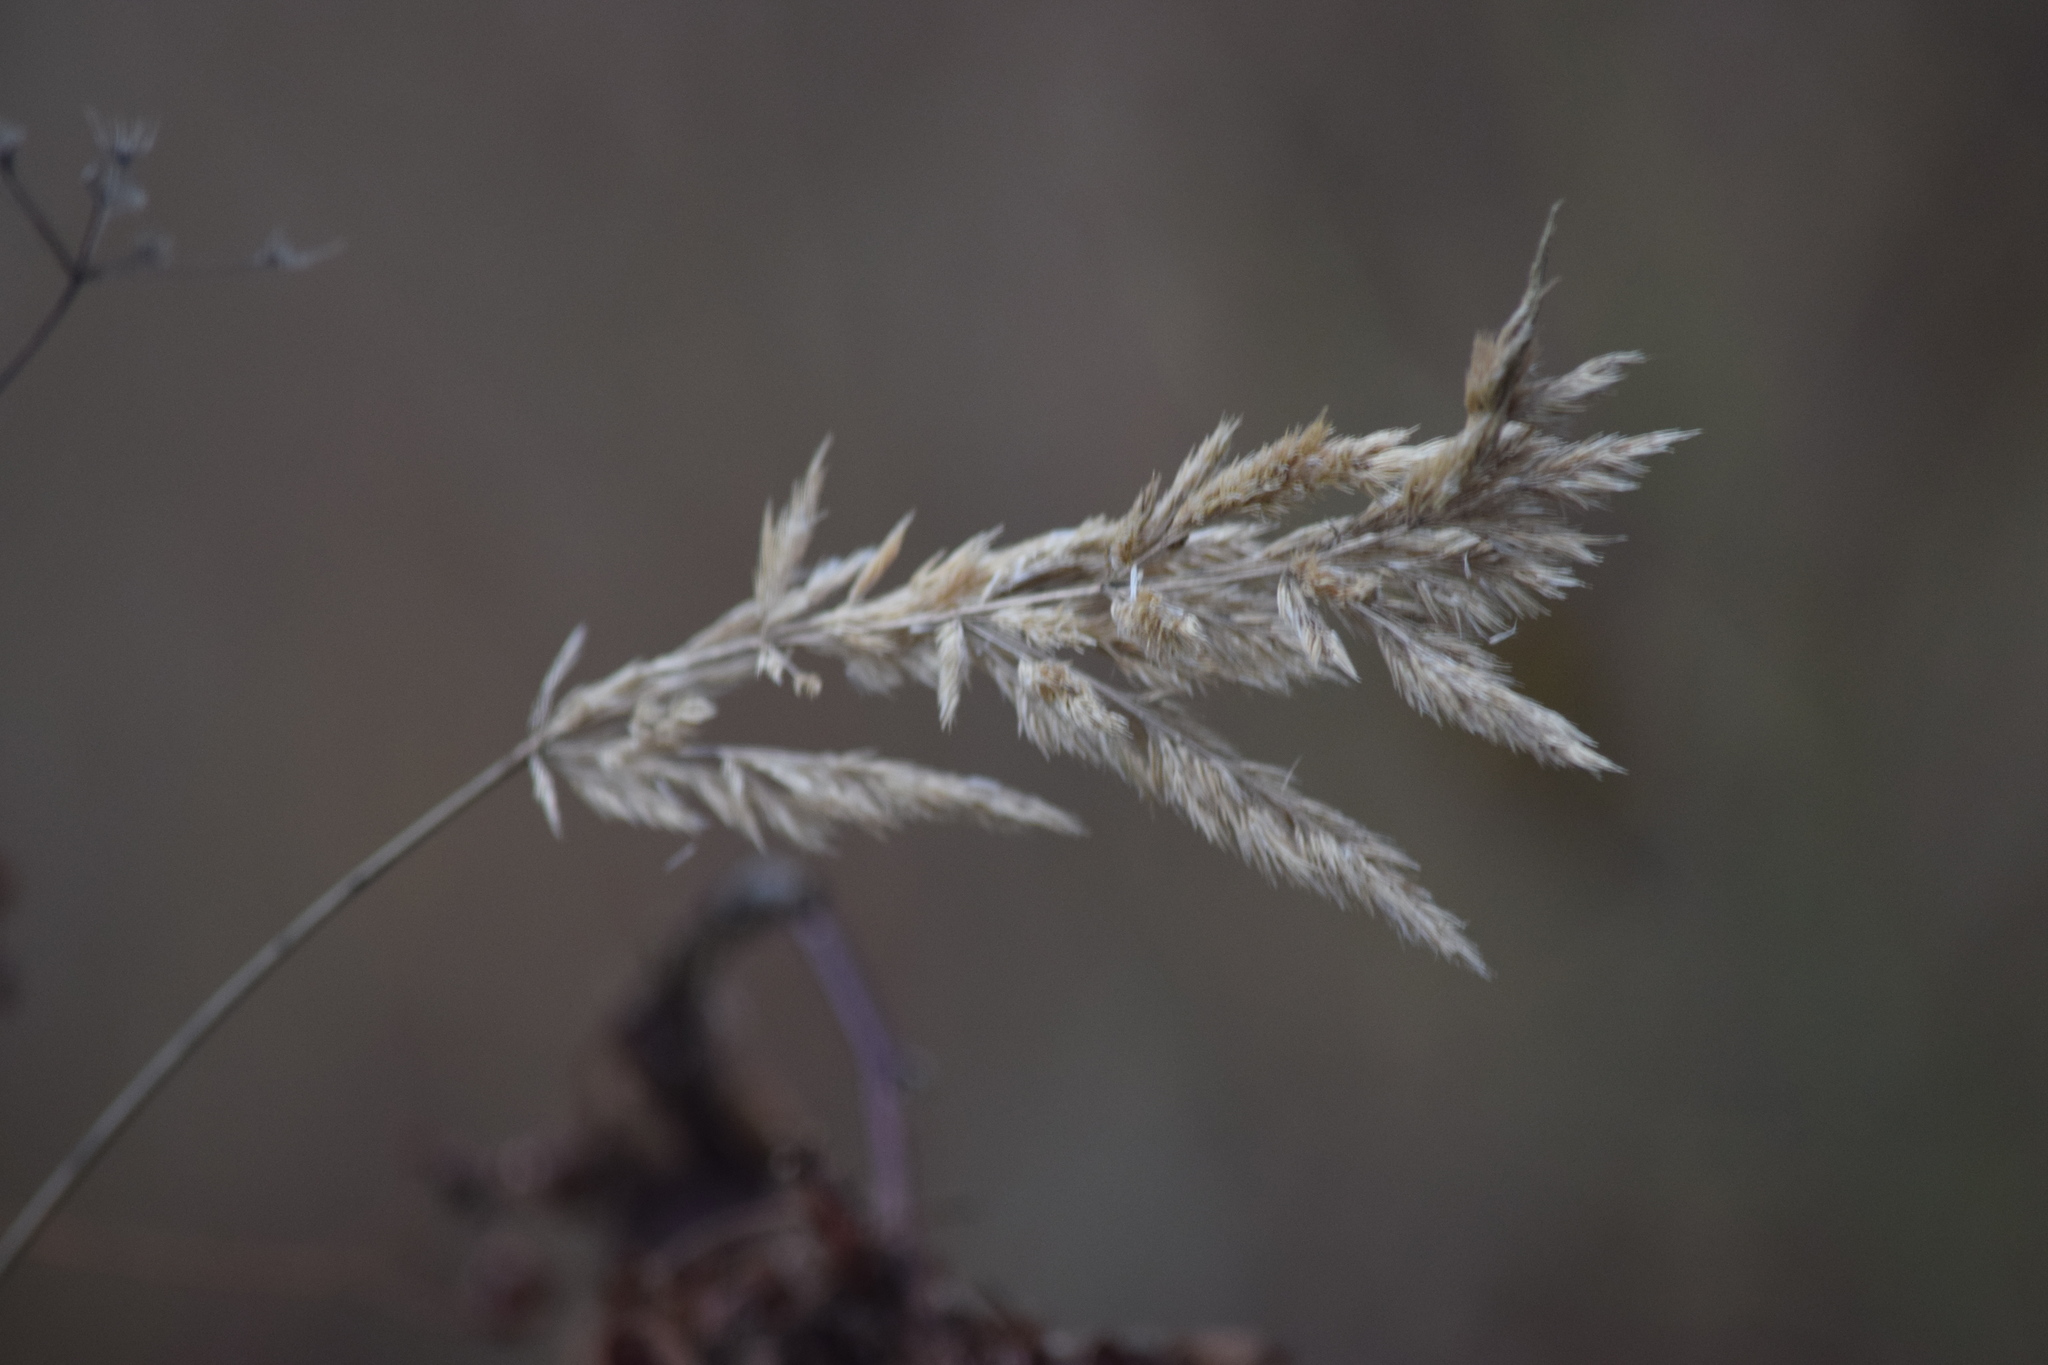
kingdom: Plantae
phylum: Tracheophyta
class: Liliopsida
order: Poales
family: Poaceae
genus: Calamagrostis
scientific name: Calamagrostis epigejos
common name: Wood small-reed
